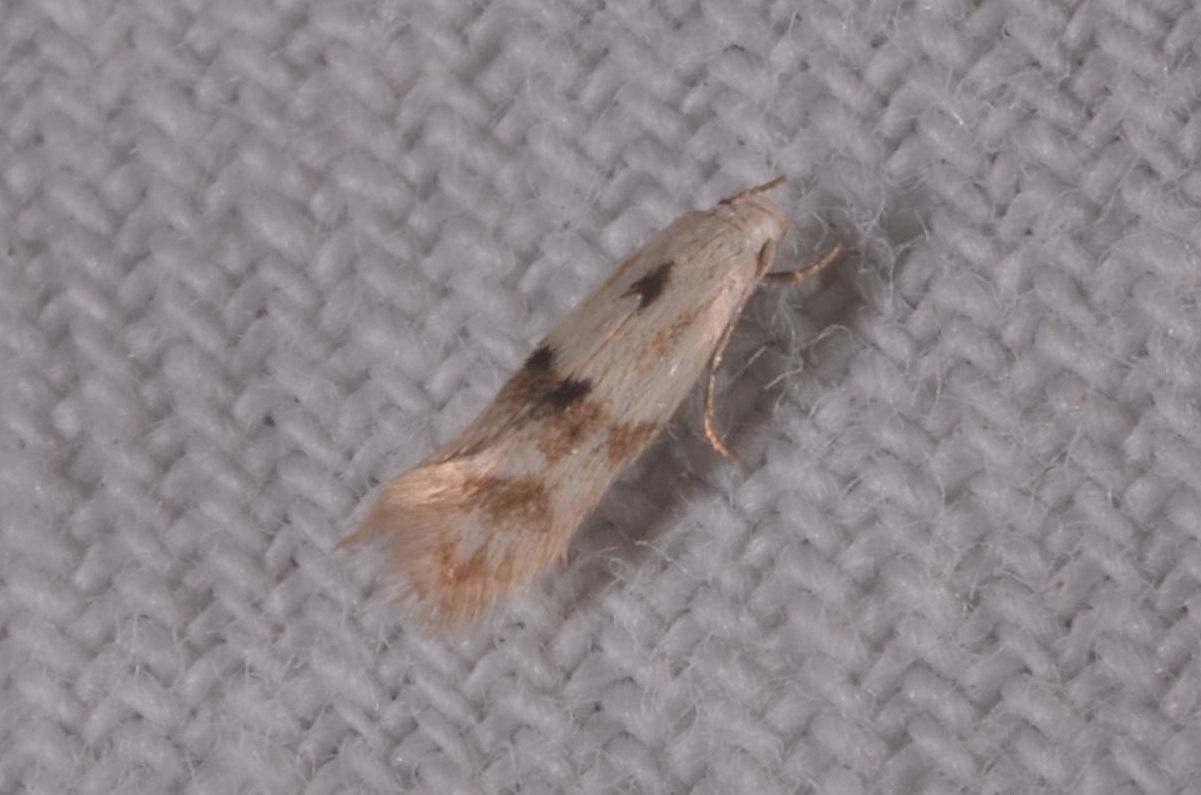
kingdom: Animalia
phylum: Arthropoda
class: Insecta
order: Lepidoptera
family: Elachistidae
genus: Elachista
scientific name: Elachista maculicerusella
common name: Triple-spot dwarf
